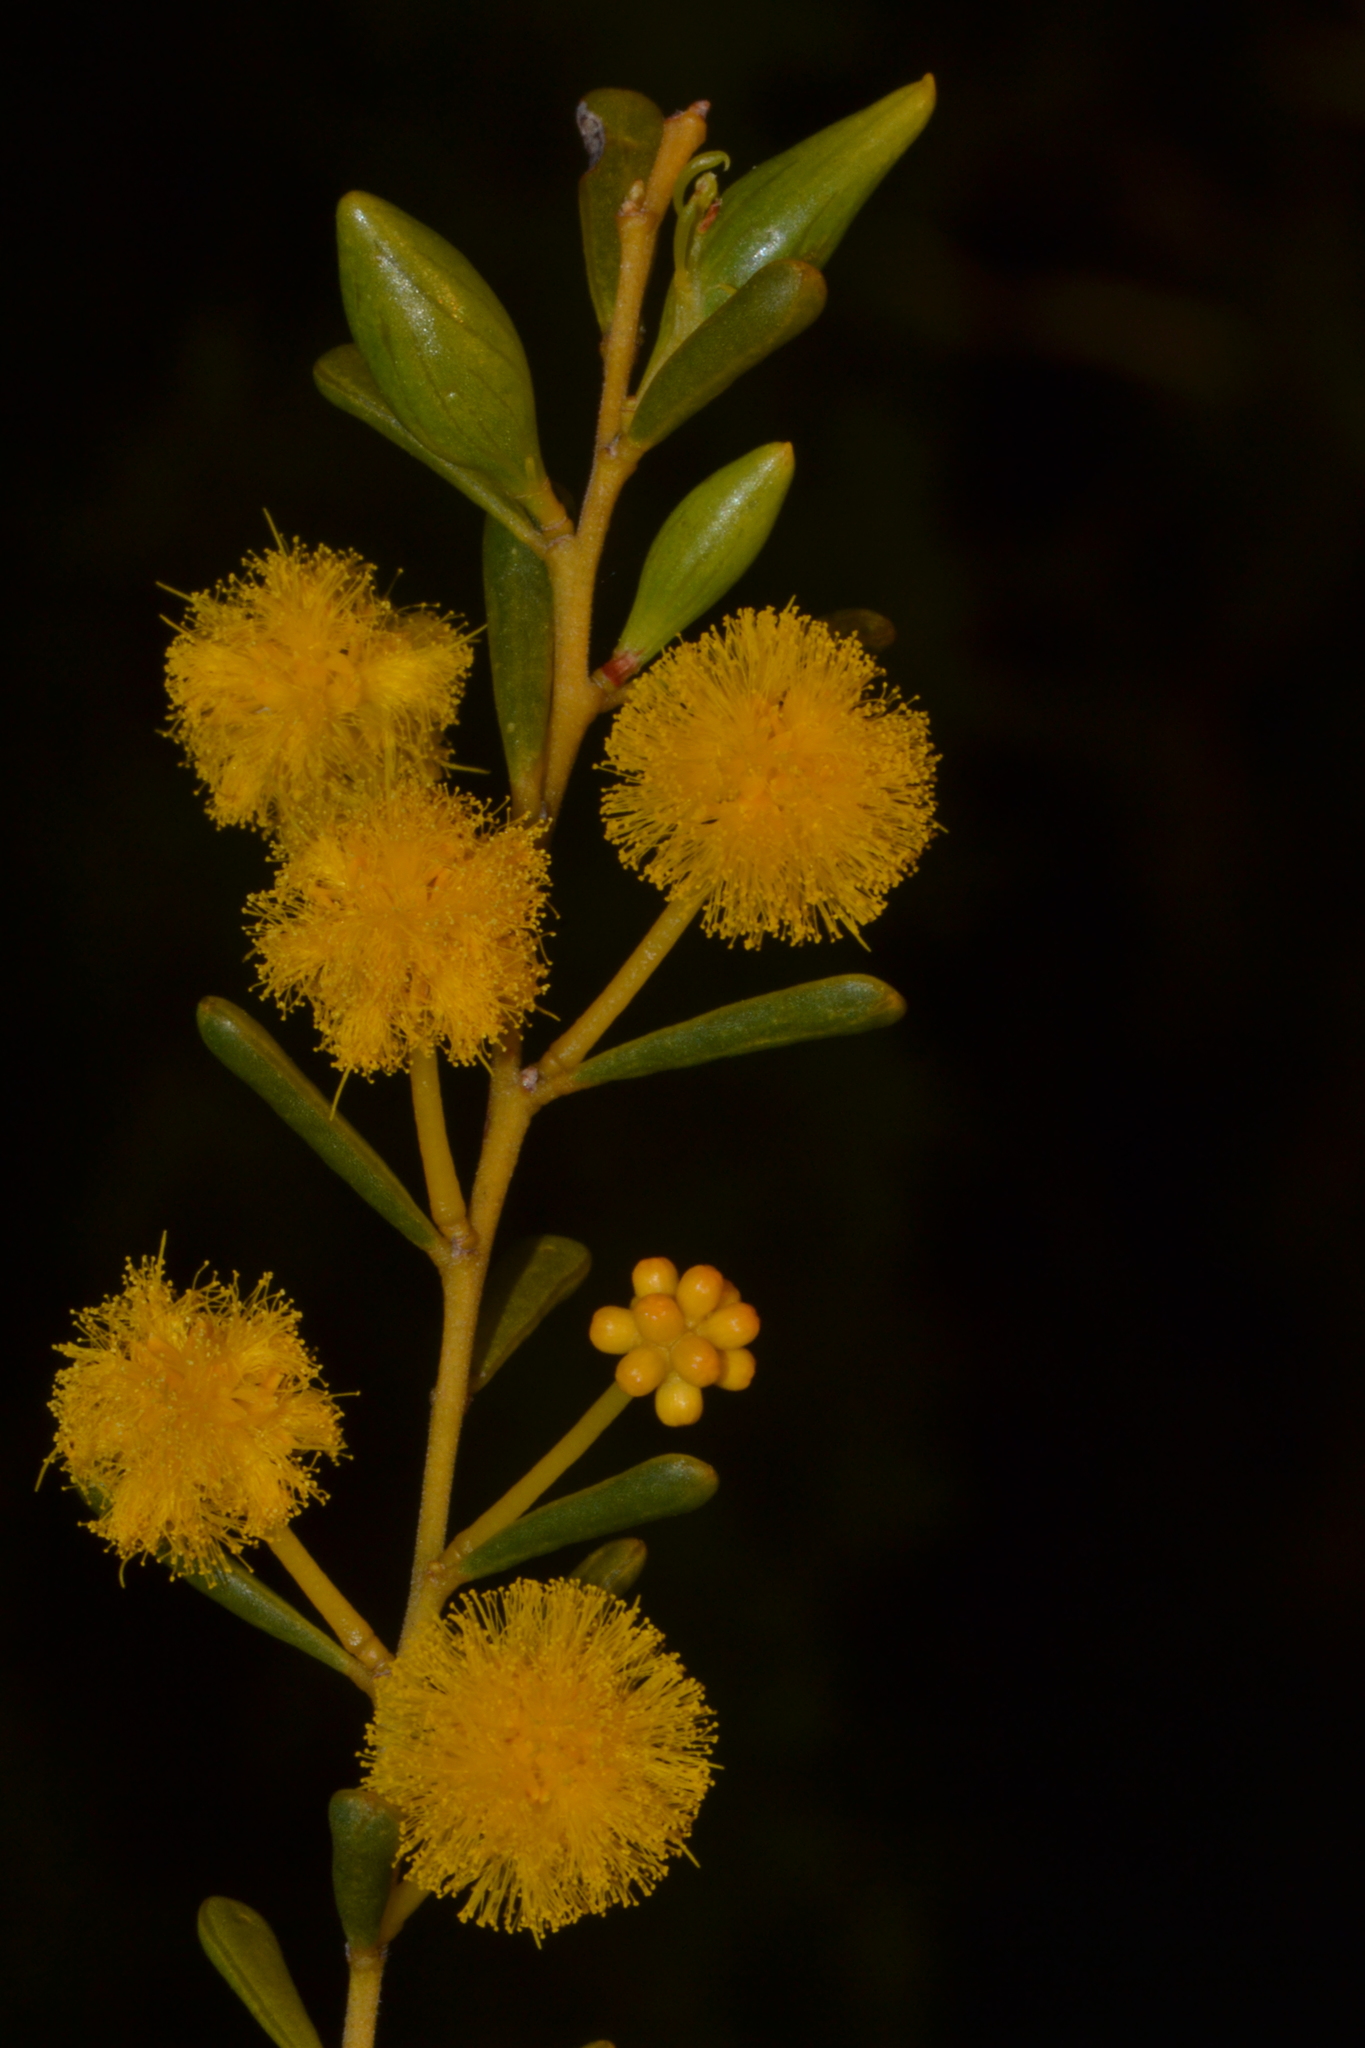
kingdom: Plantae
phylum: Tracheophyta
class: Magnoliopsida
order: Fabales
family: Fabaceae
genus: Acacia
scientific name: Acacia spathulifolia
